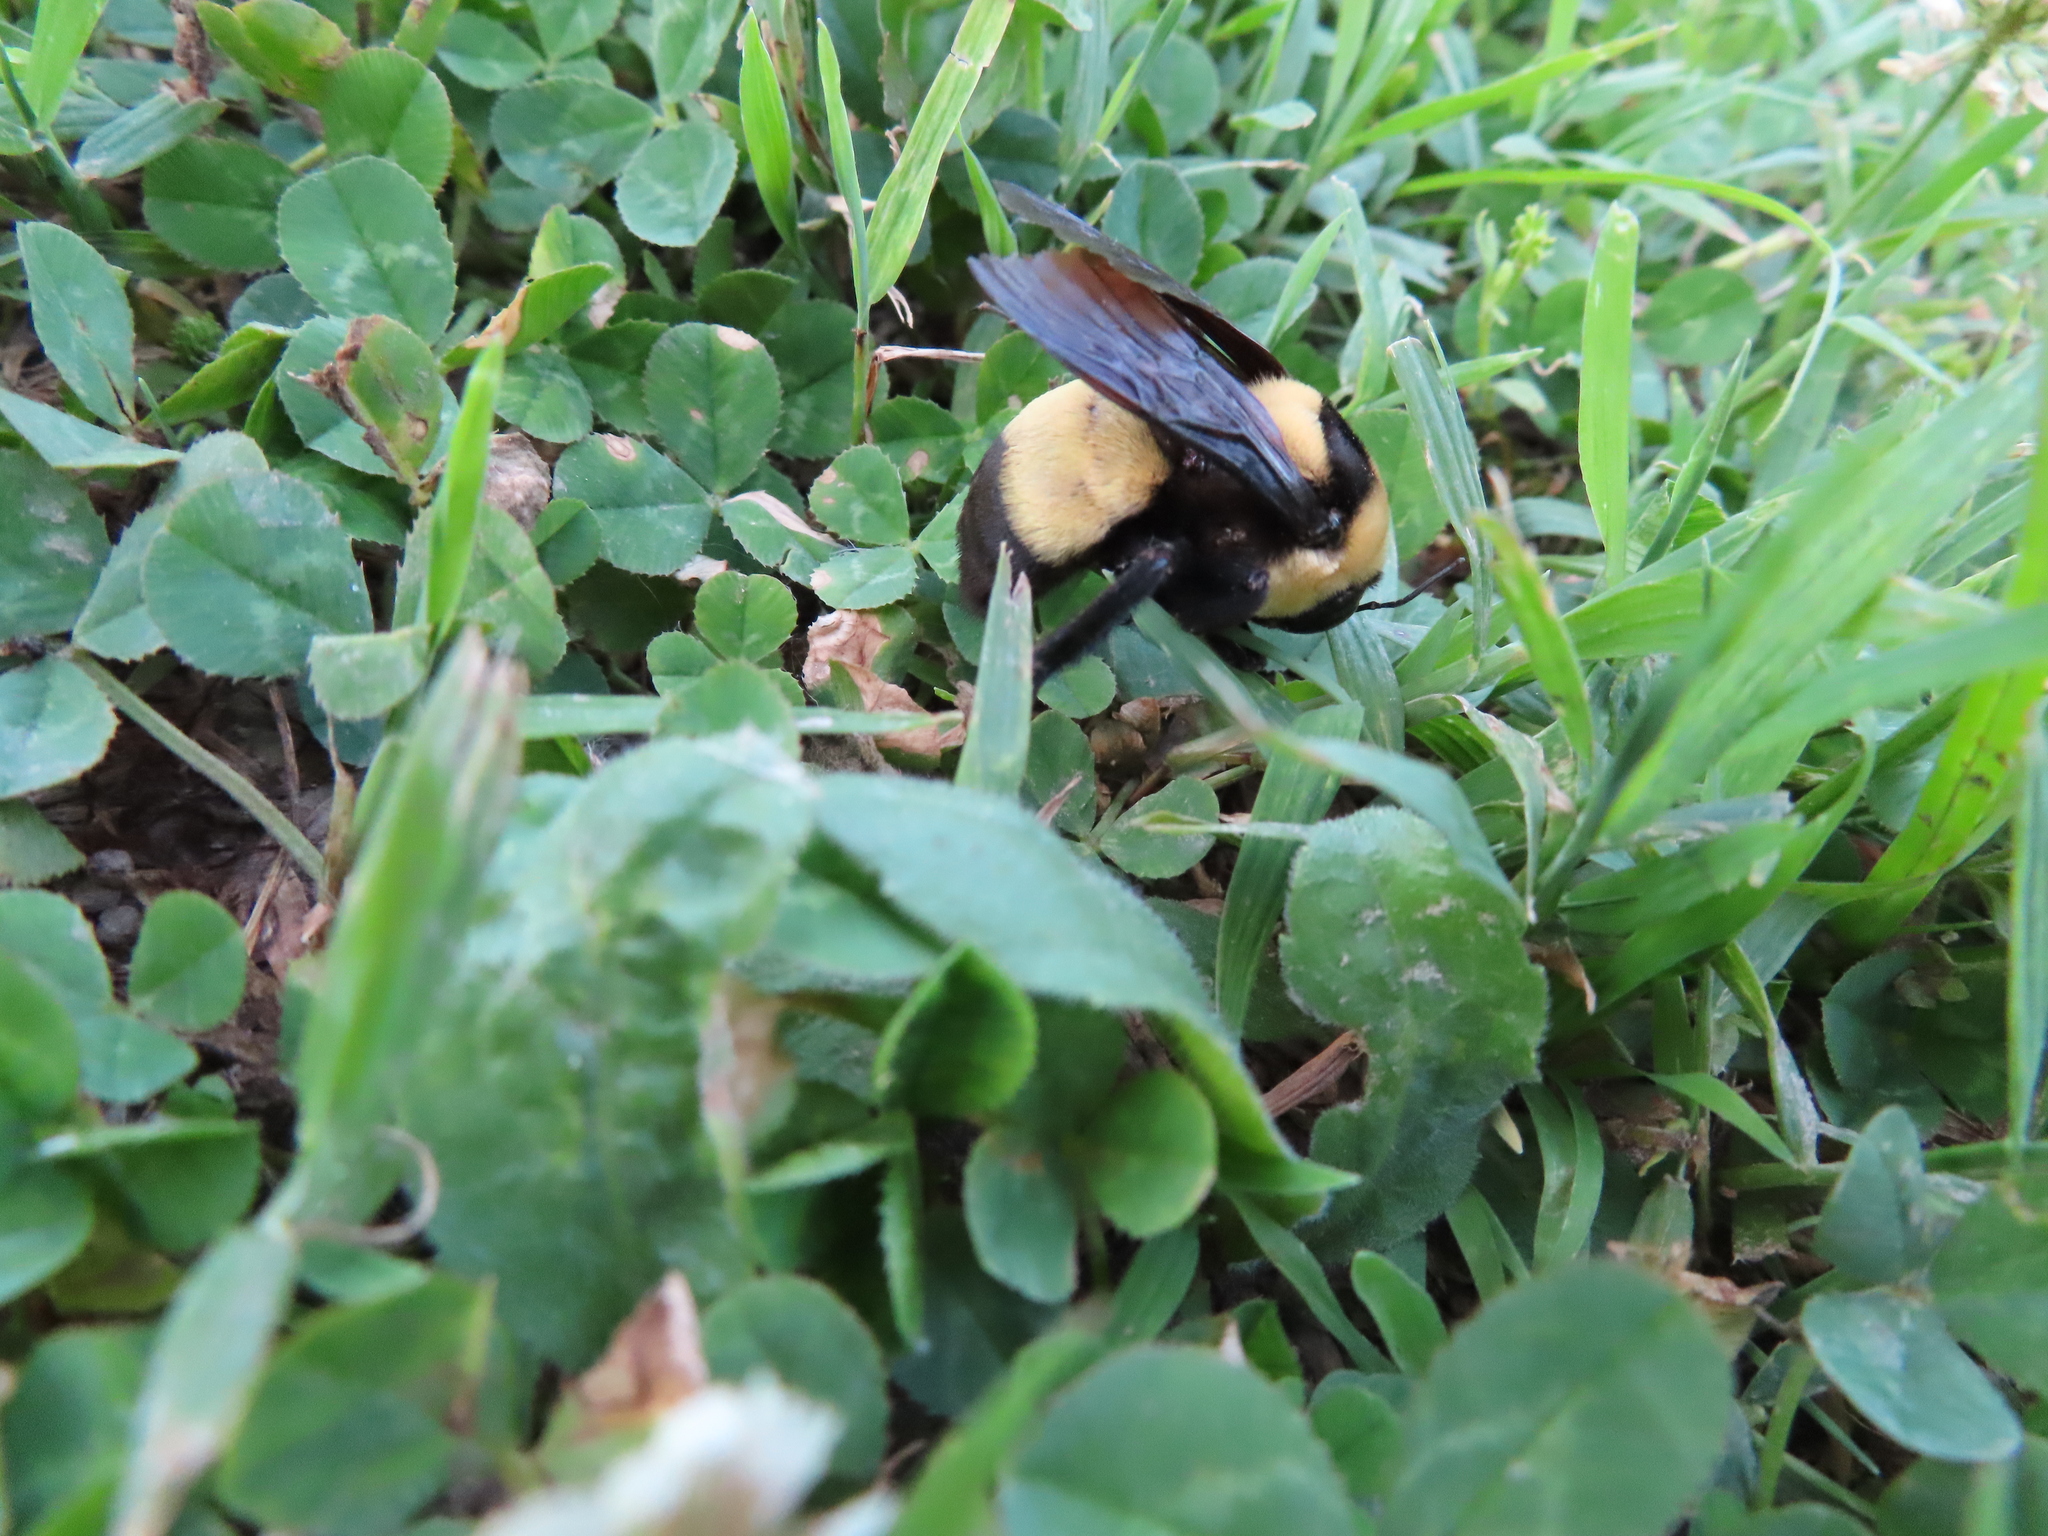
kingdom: Animalia
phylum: Arthropoda
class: Insecta
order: Hymenoptera
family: Apidae
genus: Bombus
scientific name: Bombus fraternus
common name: Southern plains bumble bee
